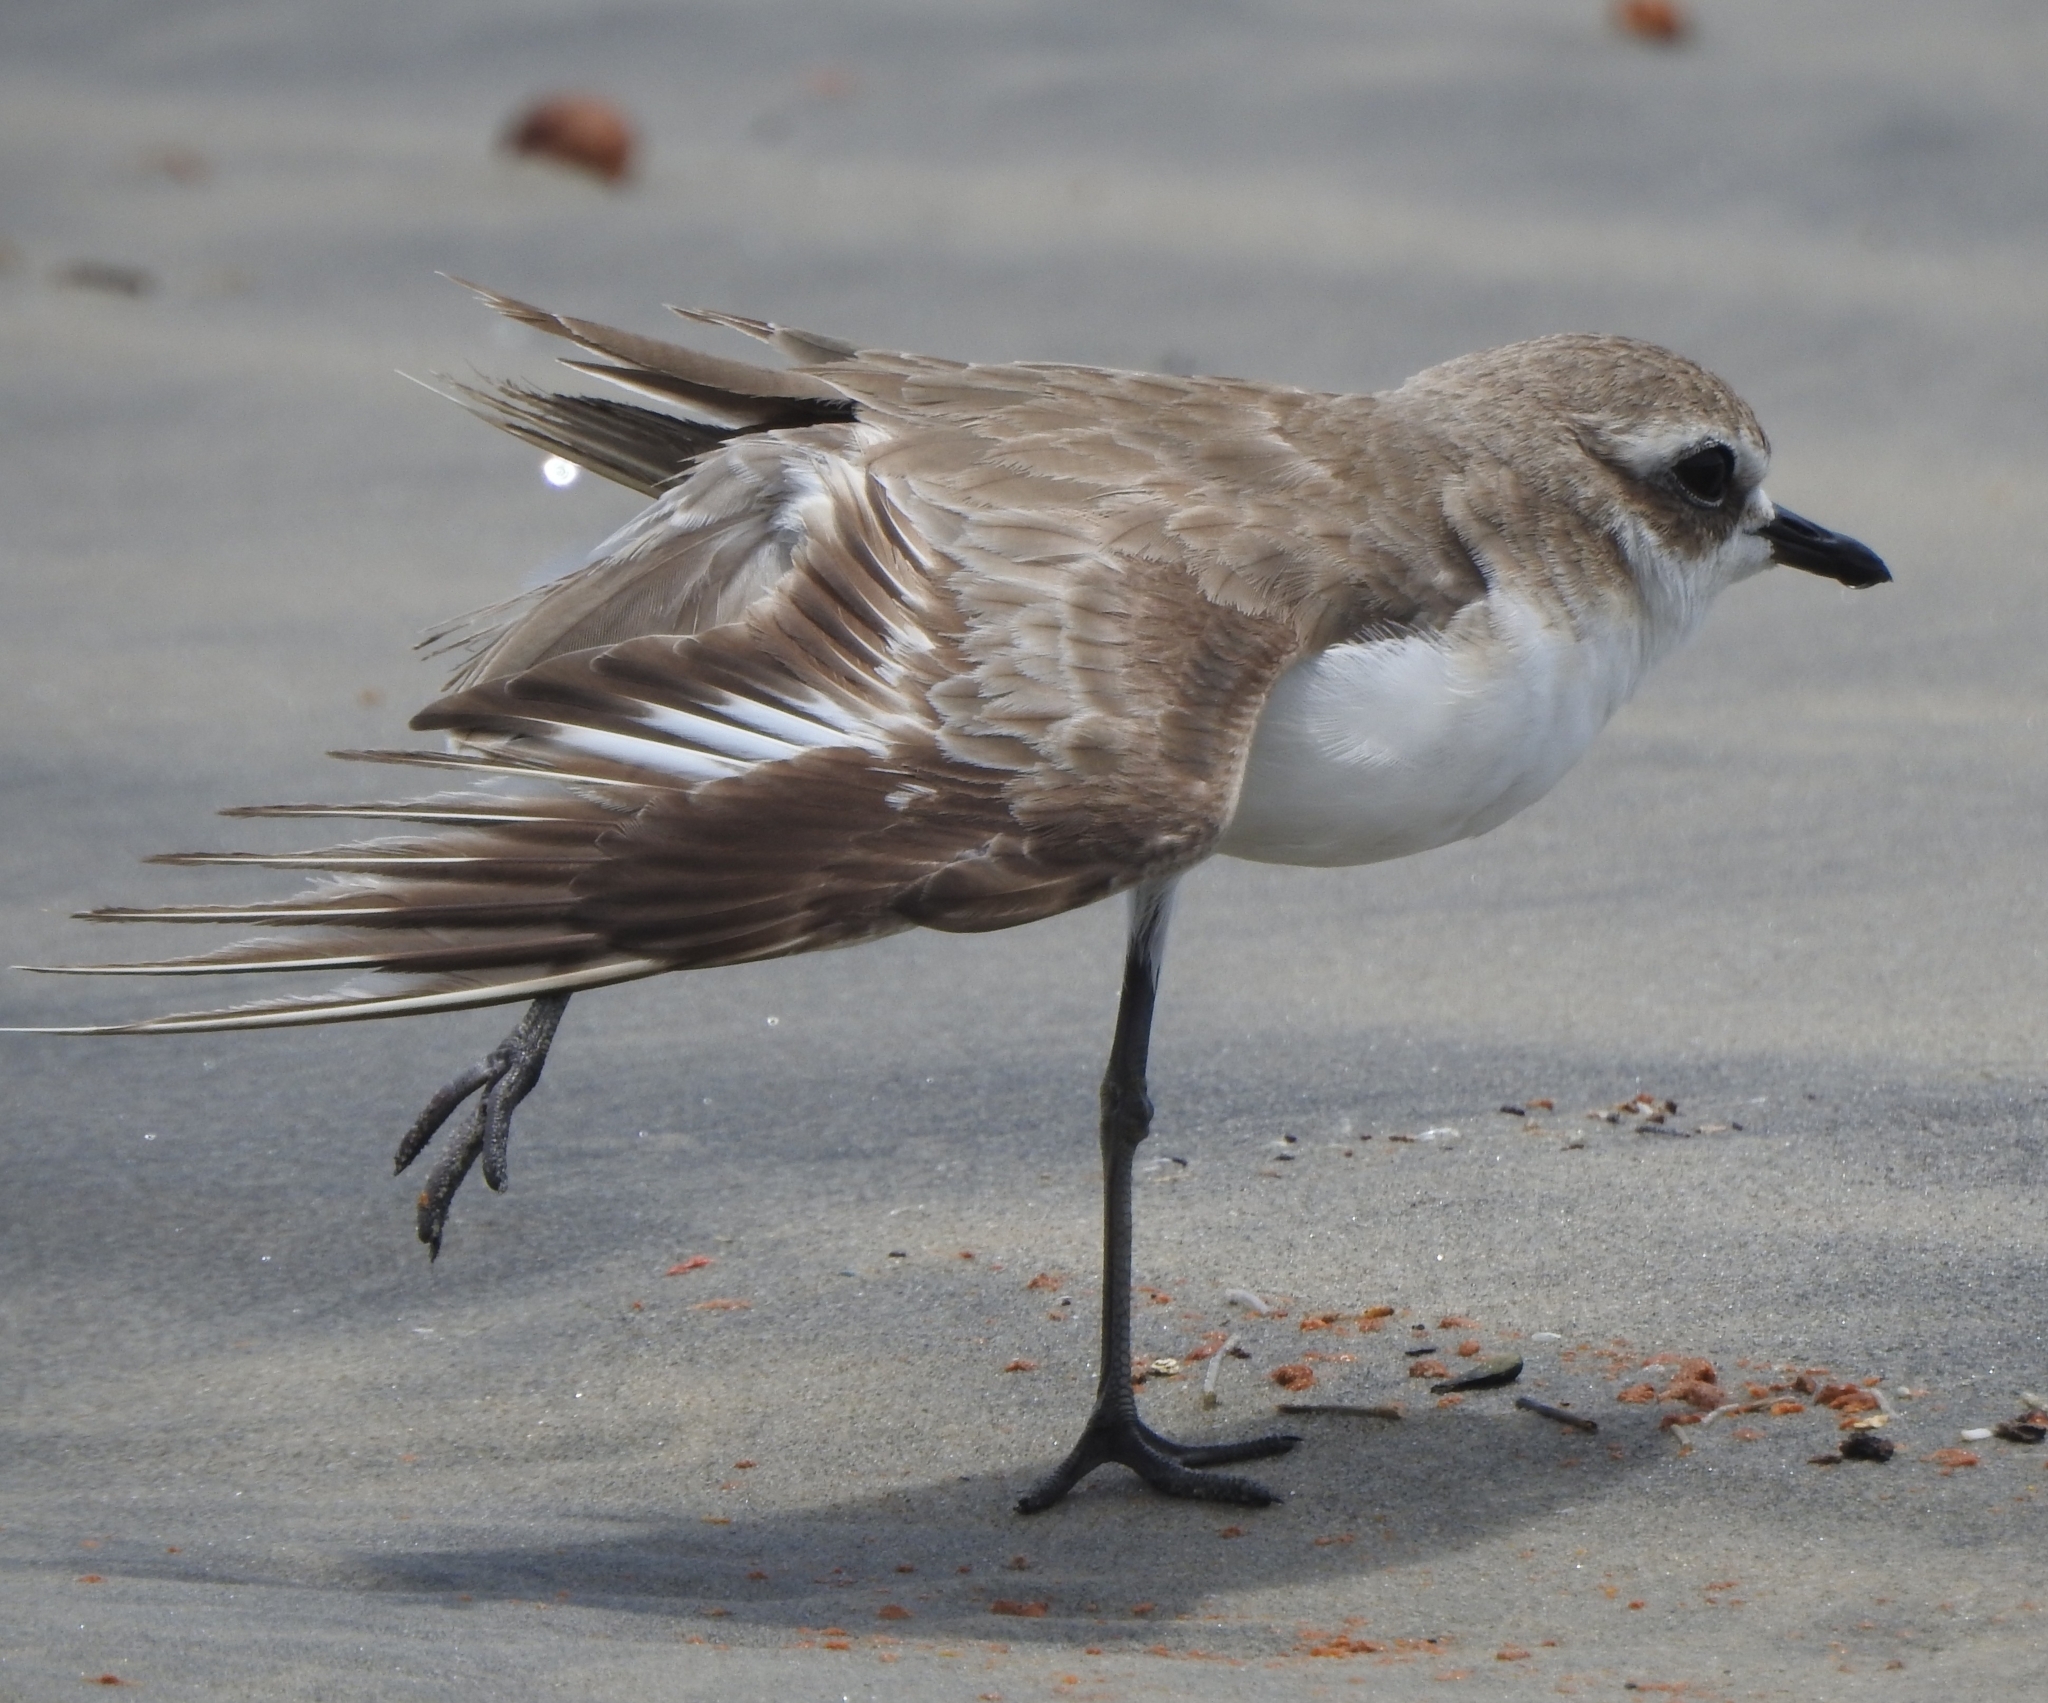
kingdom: Animalia
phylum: Chordata
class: Aves
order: Charadriiformes
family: Charadriidae
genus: Anarhynchus
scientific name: Anarhynchus
